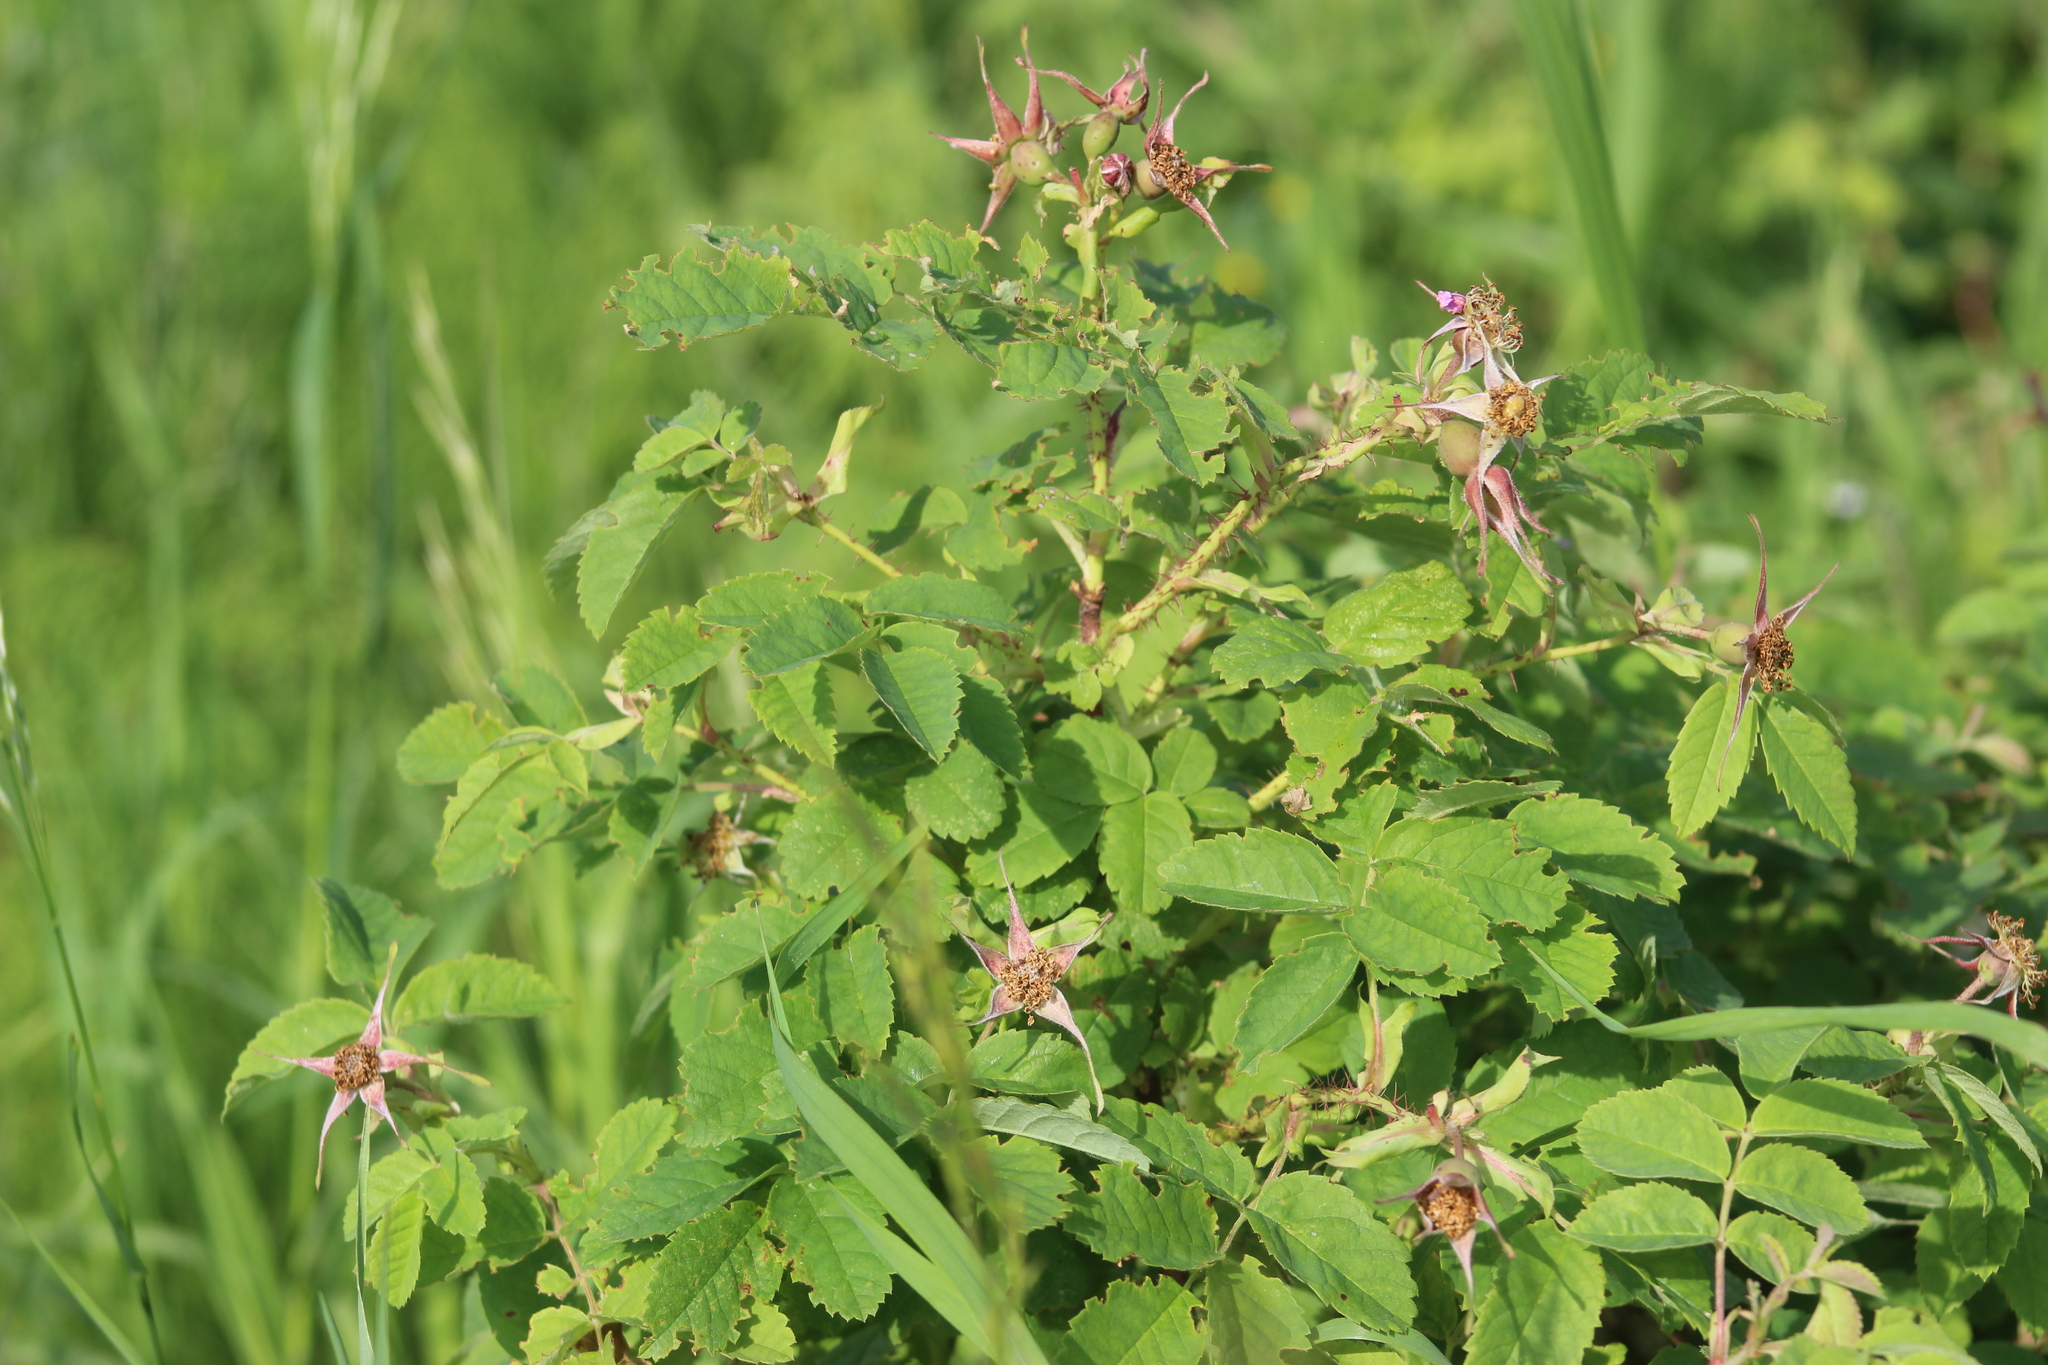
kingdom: Plantae
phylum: Tracheophyta
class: Magnoliopsida
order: Rosales
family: Rosaceae
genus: Rosa
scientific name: Rosa acicularis
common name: Prickly rose
